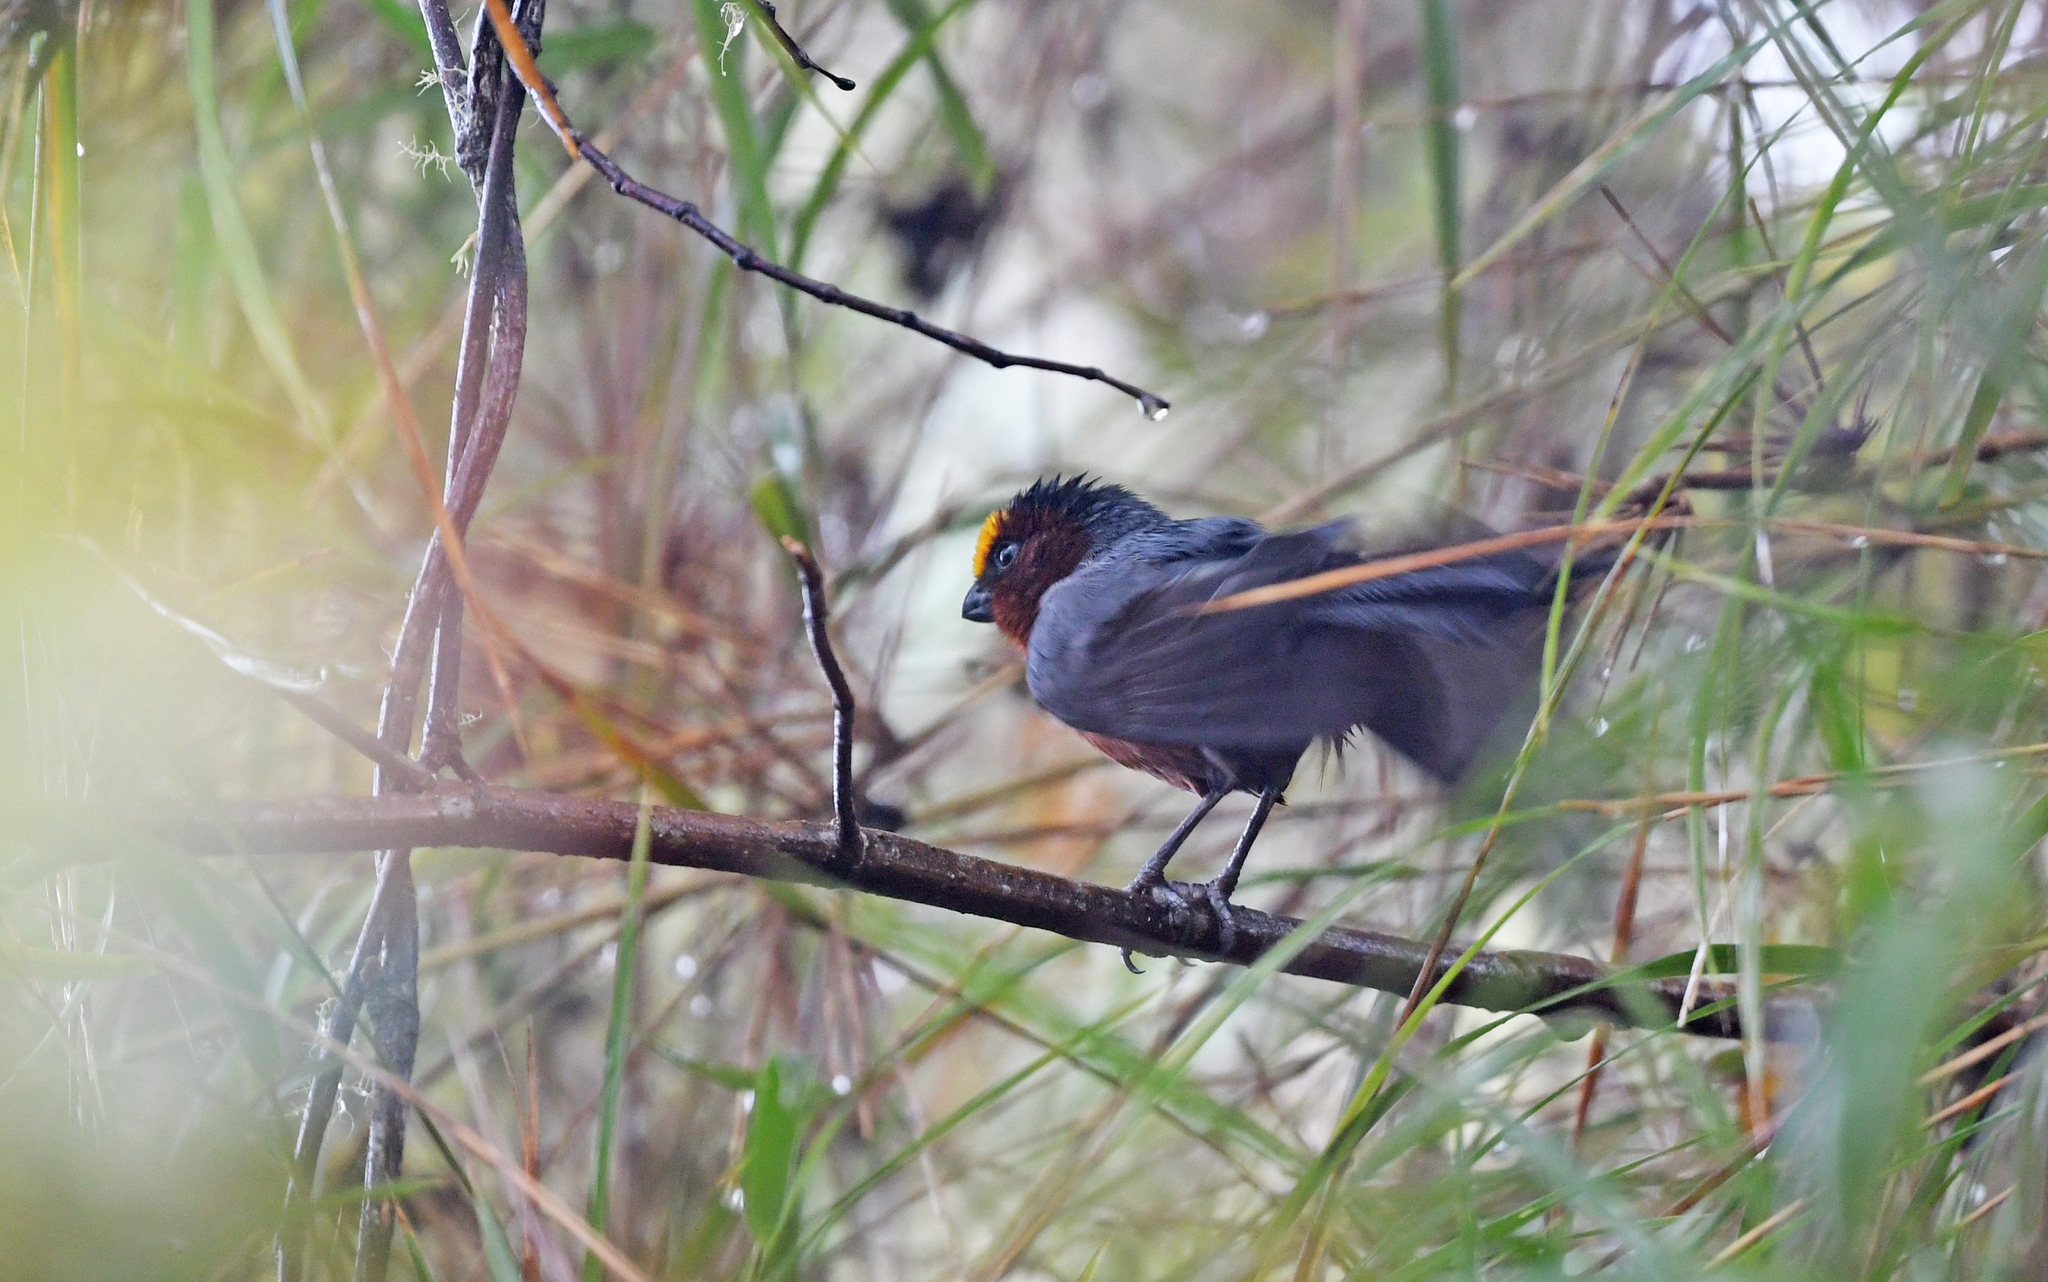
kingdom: Animalia
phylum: Chordata
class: Aves
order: Passeriformes
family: Thraupidae
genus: Catamblyrhynchus
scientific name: Catamblyrhynchus diadema
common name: Plushcap
